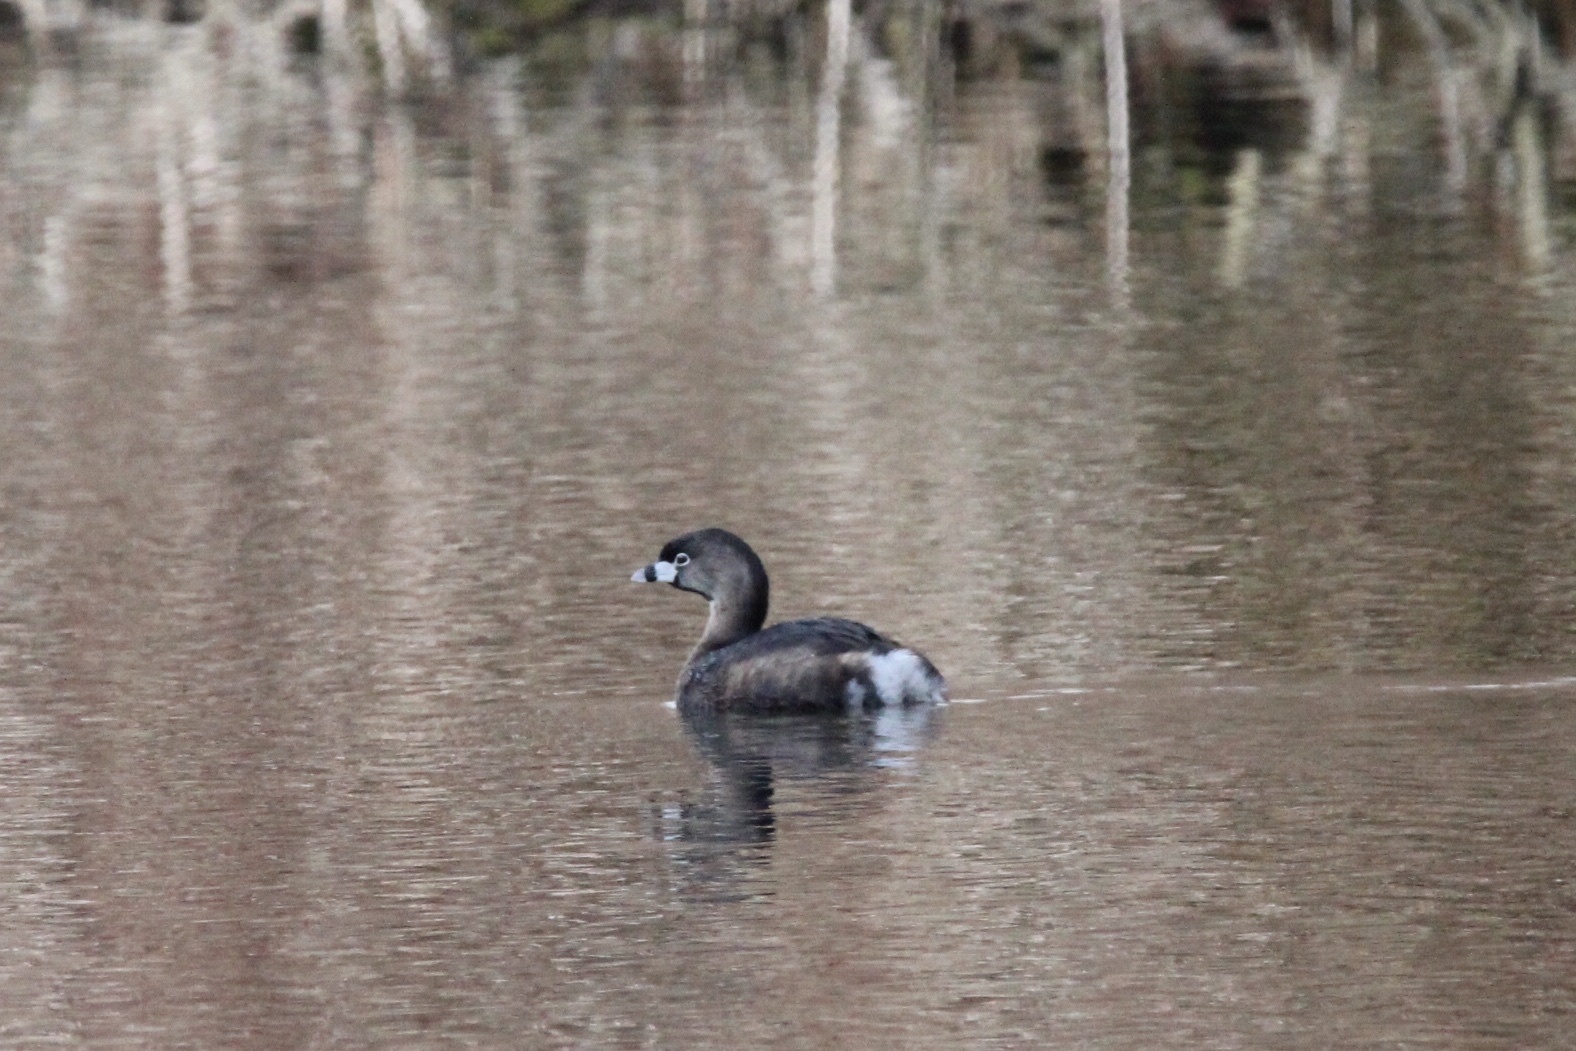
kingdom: Animalia
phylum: Chordata
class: Aves
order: Podicipediformes
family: Podicipedidae
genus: Podilymbus
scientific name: Podilymbus podiceps
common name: Pied-billed grebe
